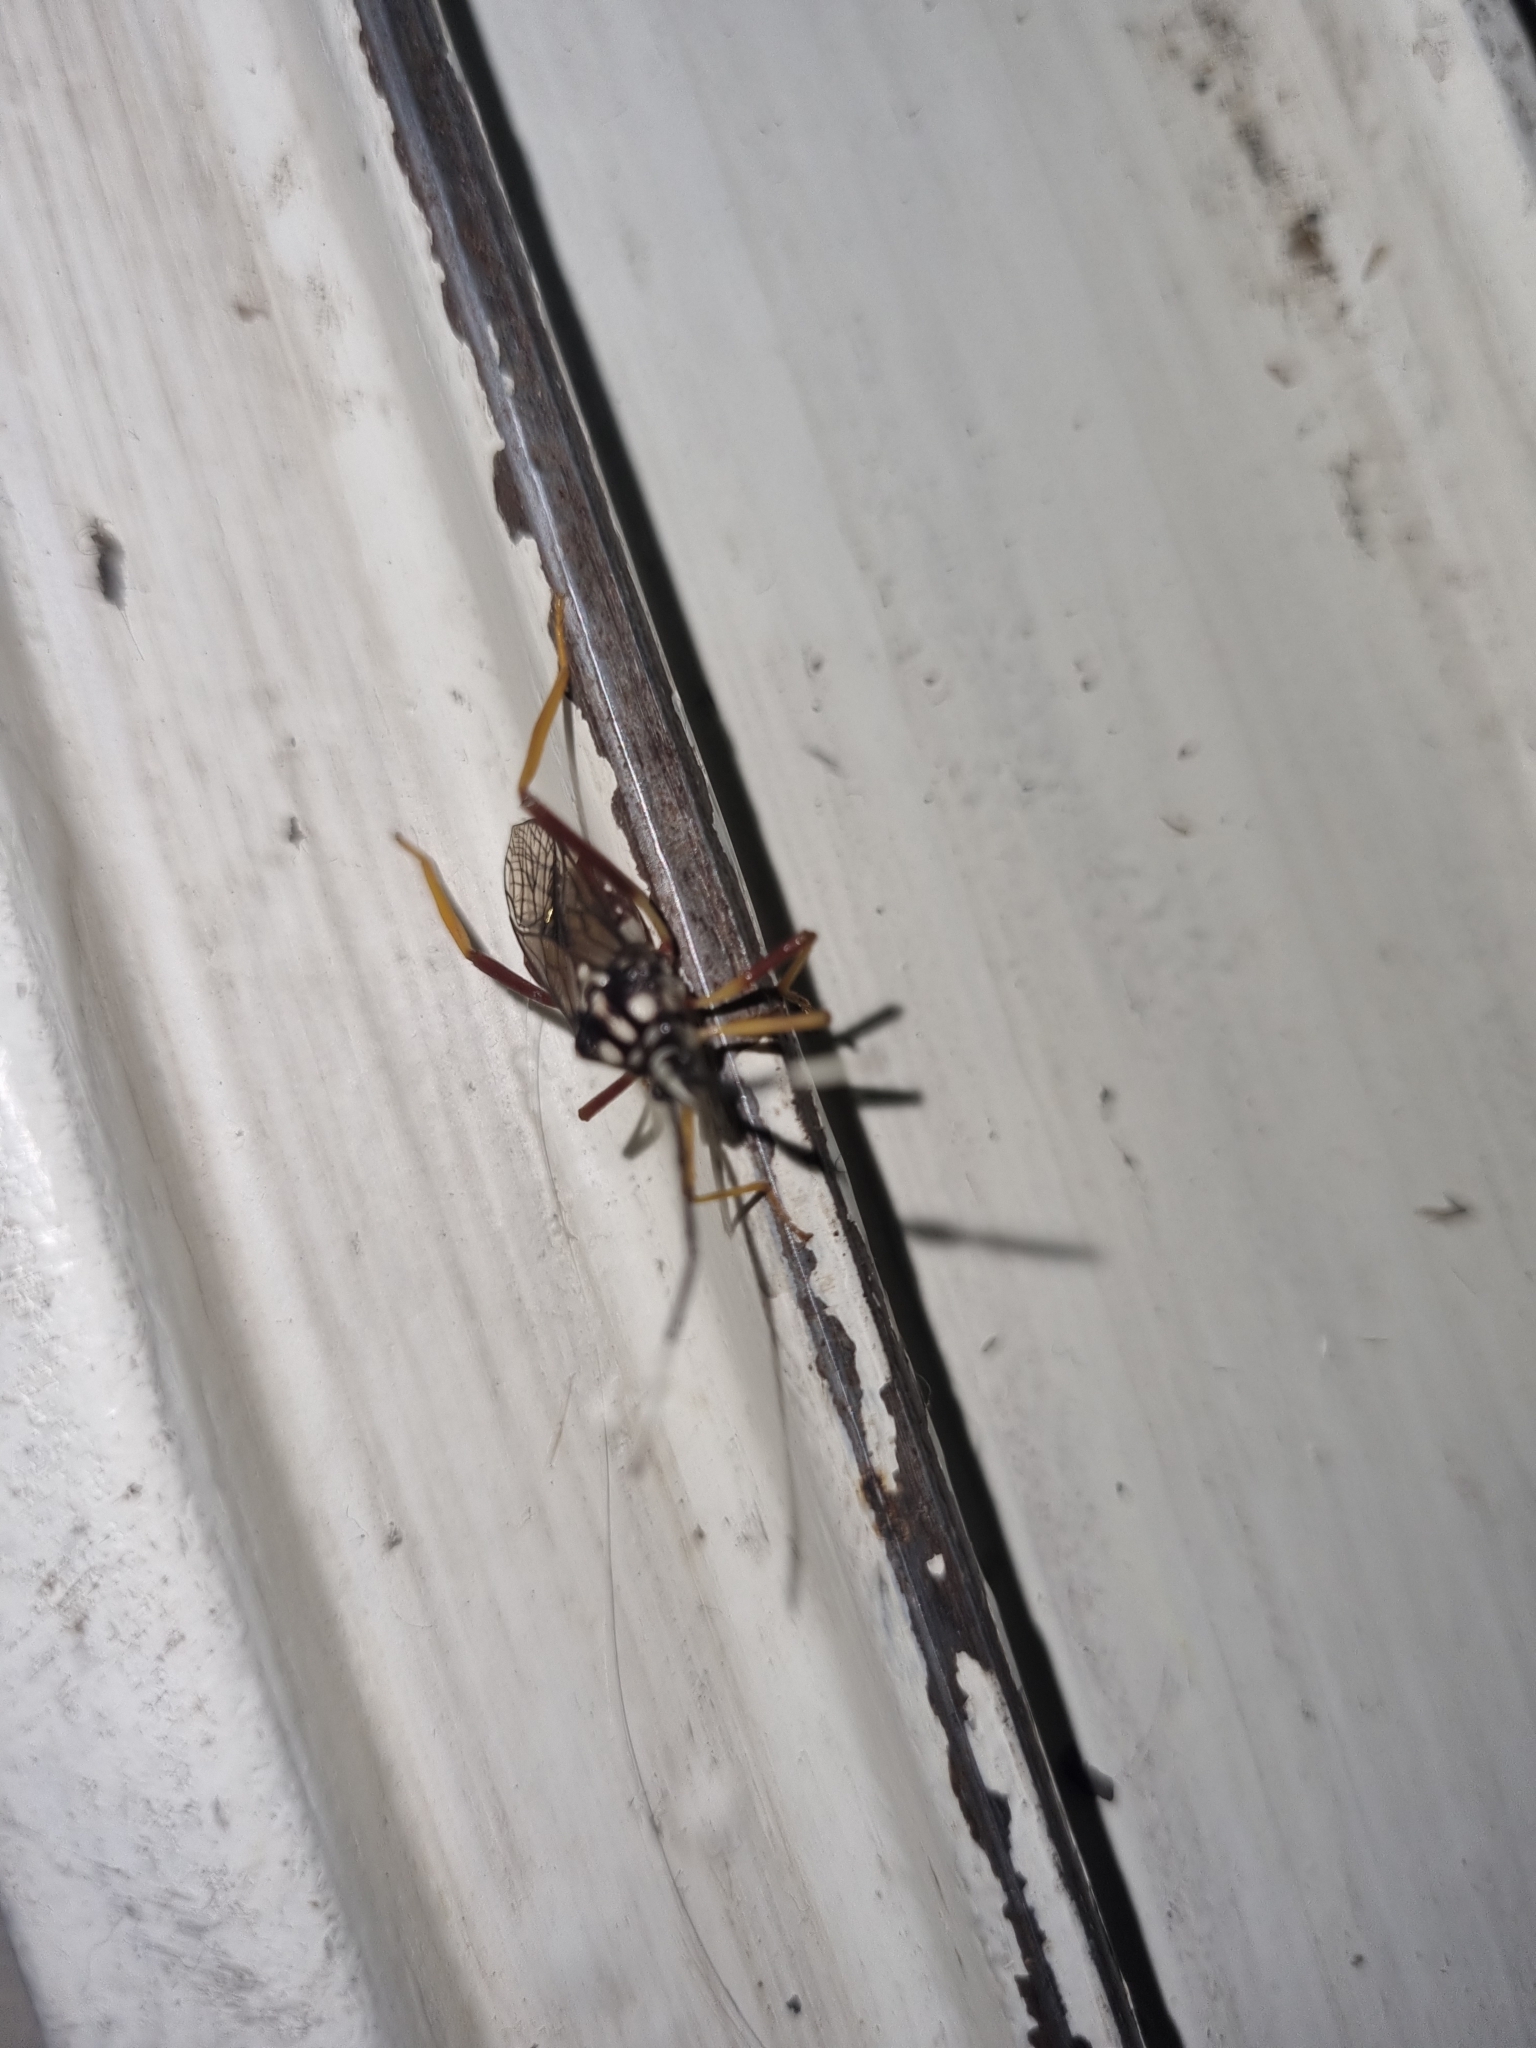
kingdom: Animalia
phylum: Arthropoda
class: Insecta
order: Hemiptera
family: Coreidae
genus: Holhymenia
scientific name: Holhymenia histrio
